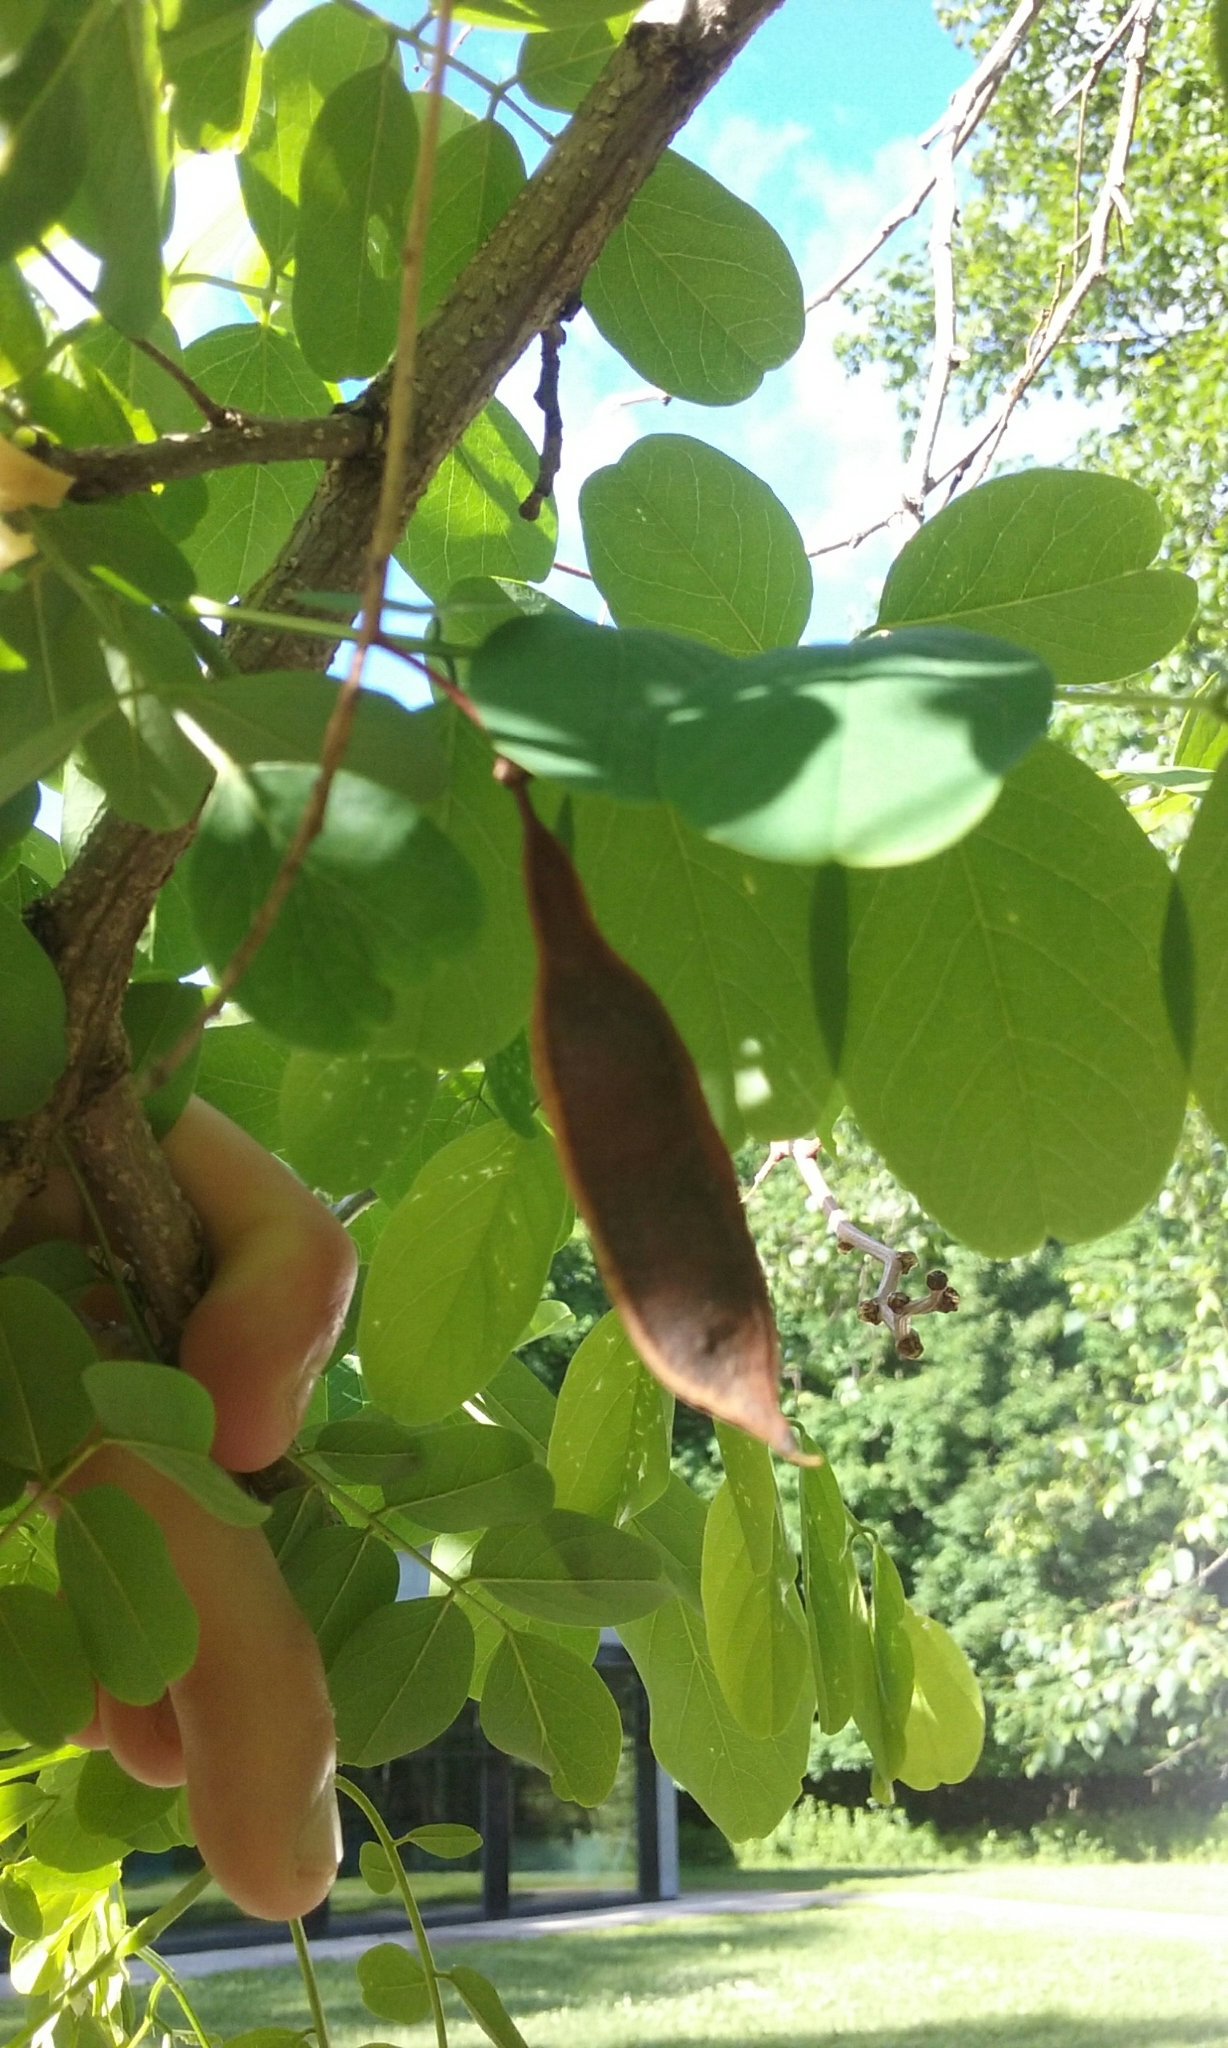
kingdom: Plantae
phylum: Tracheophyta
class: Magnoliopsida
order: Fabales
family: Fabaceae
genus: Robinia
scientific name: Robinia pseudoacacia
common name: Black locust
